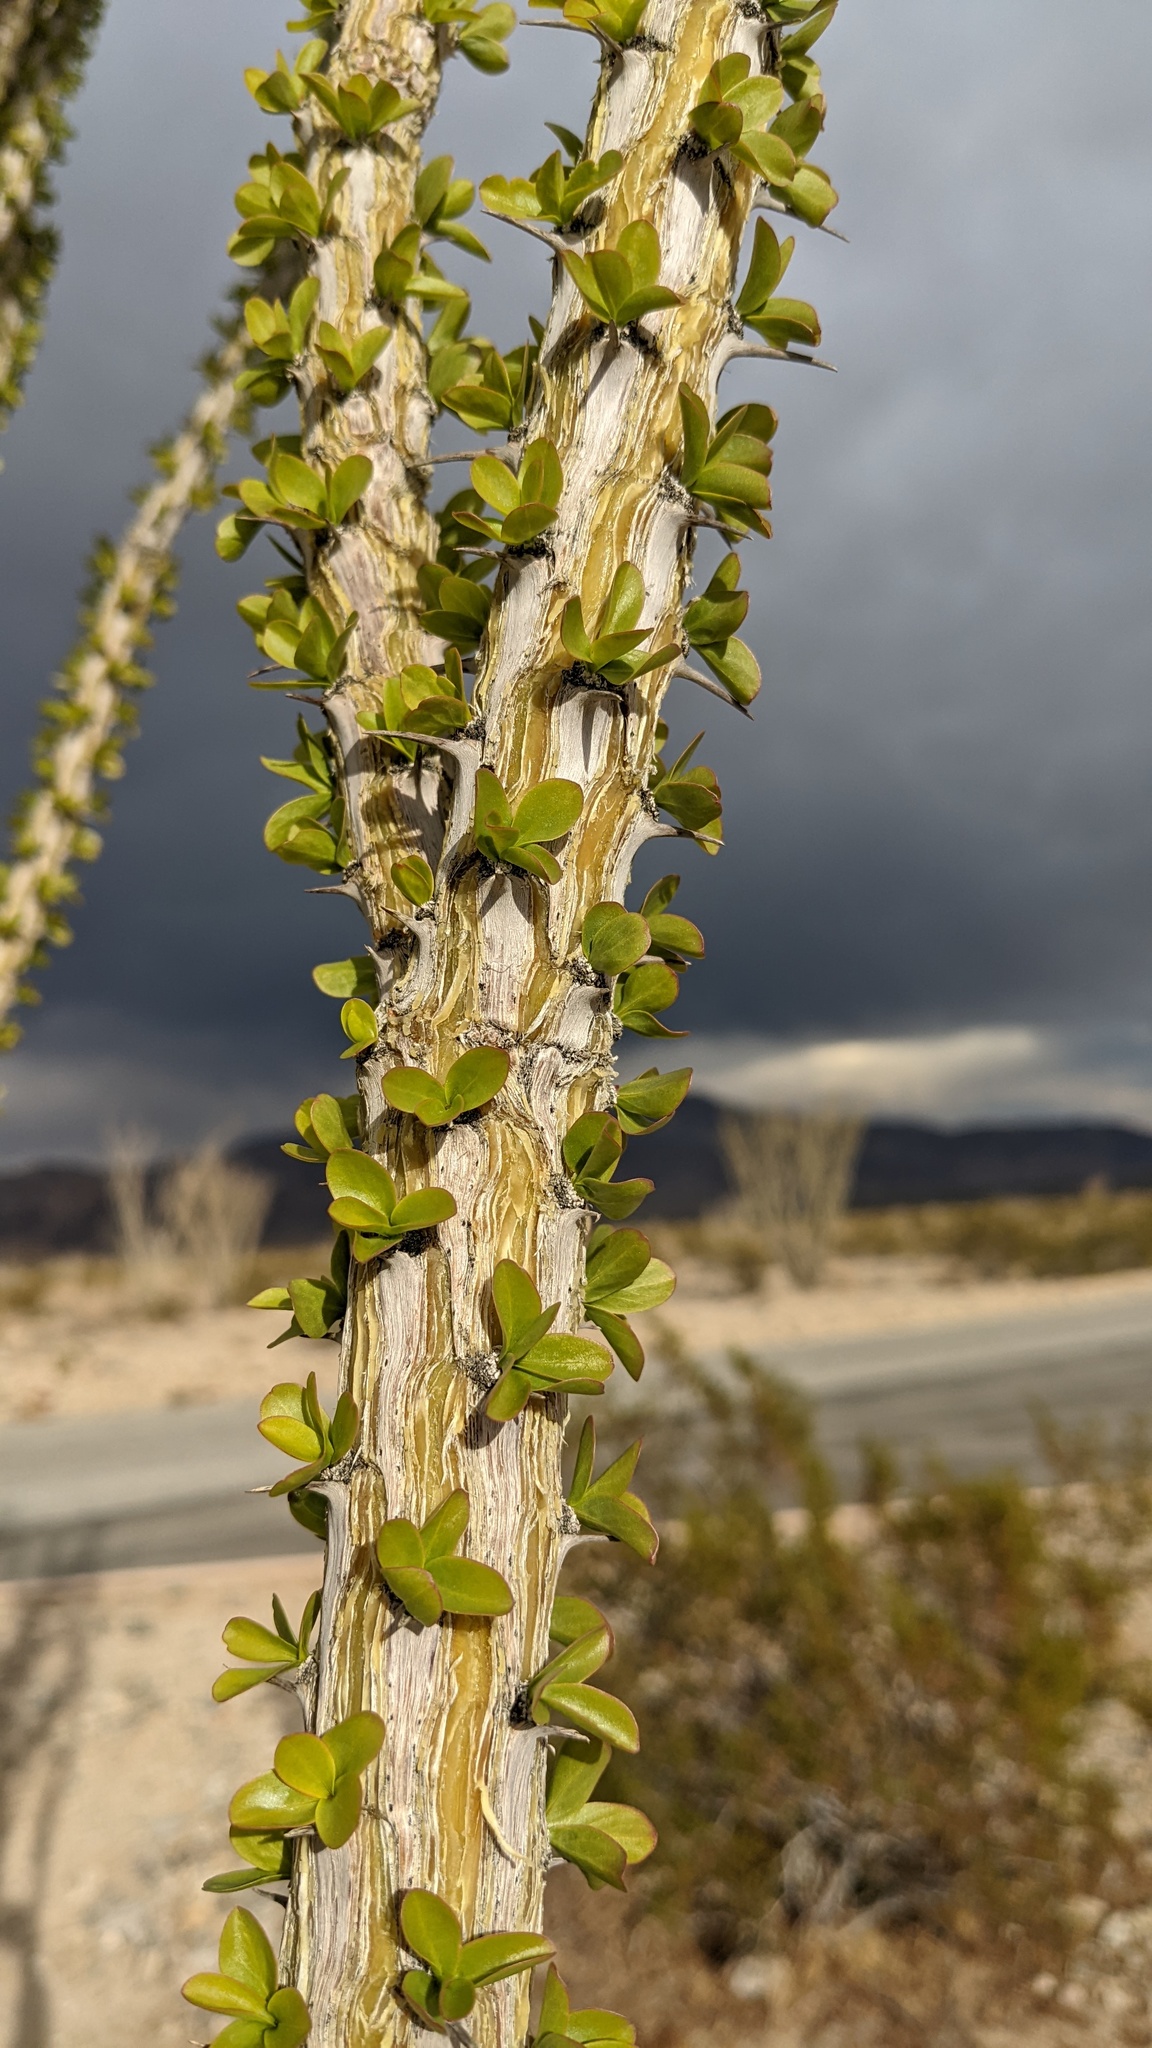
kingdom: Plantae
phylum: Tracheophyta
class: Magnoliopsida
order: Ericales
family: Fouquieriaceae
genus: Fouquieria
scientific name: Fouquieria splendens
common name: Vine-cactus
